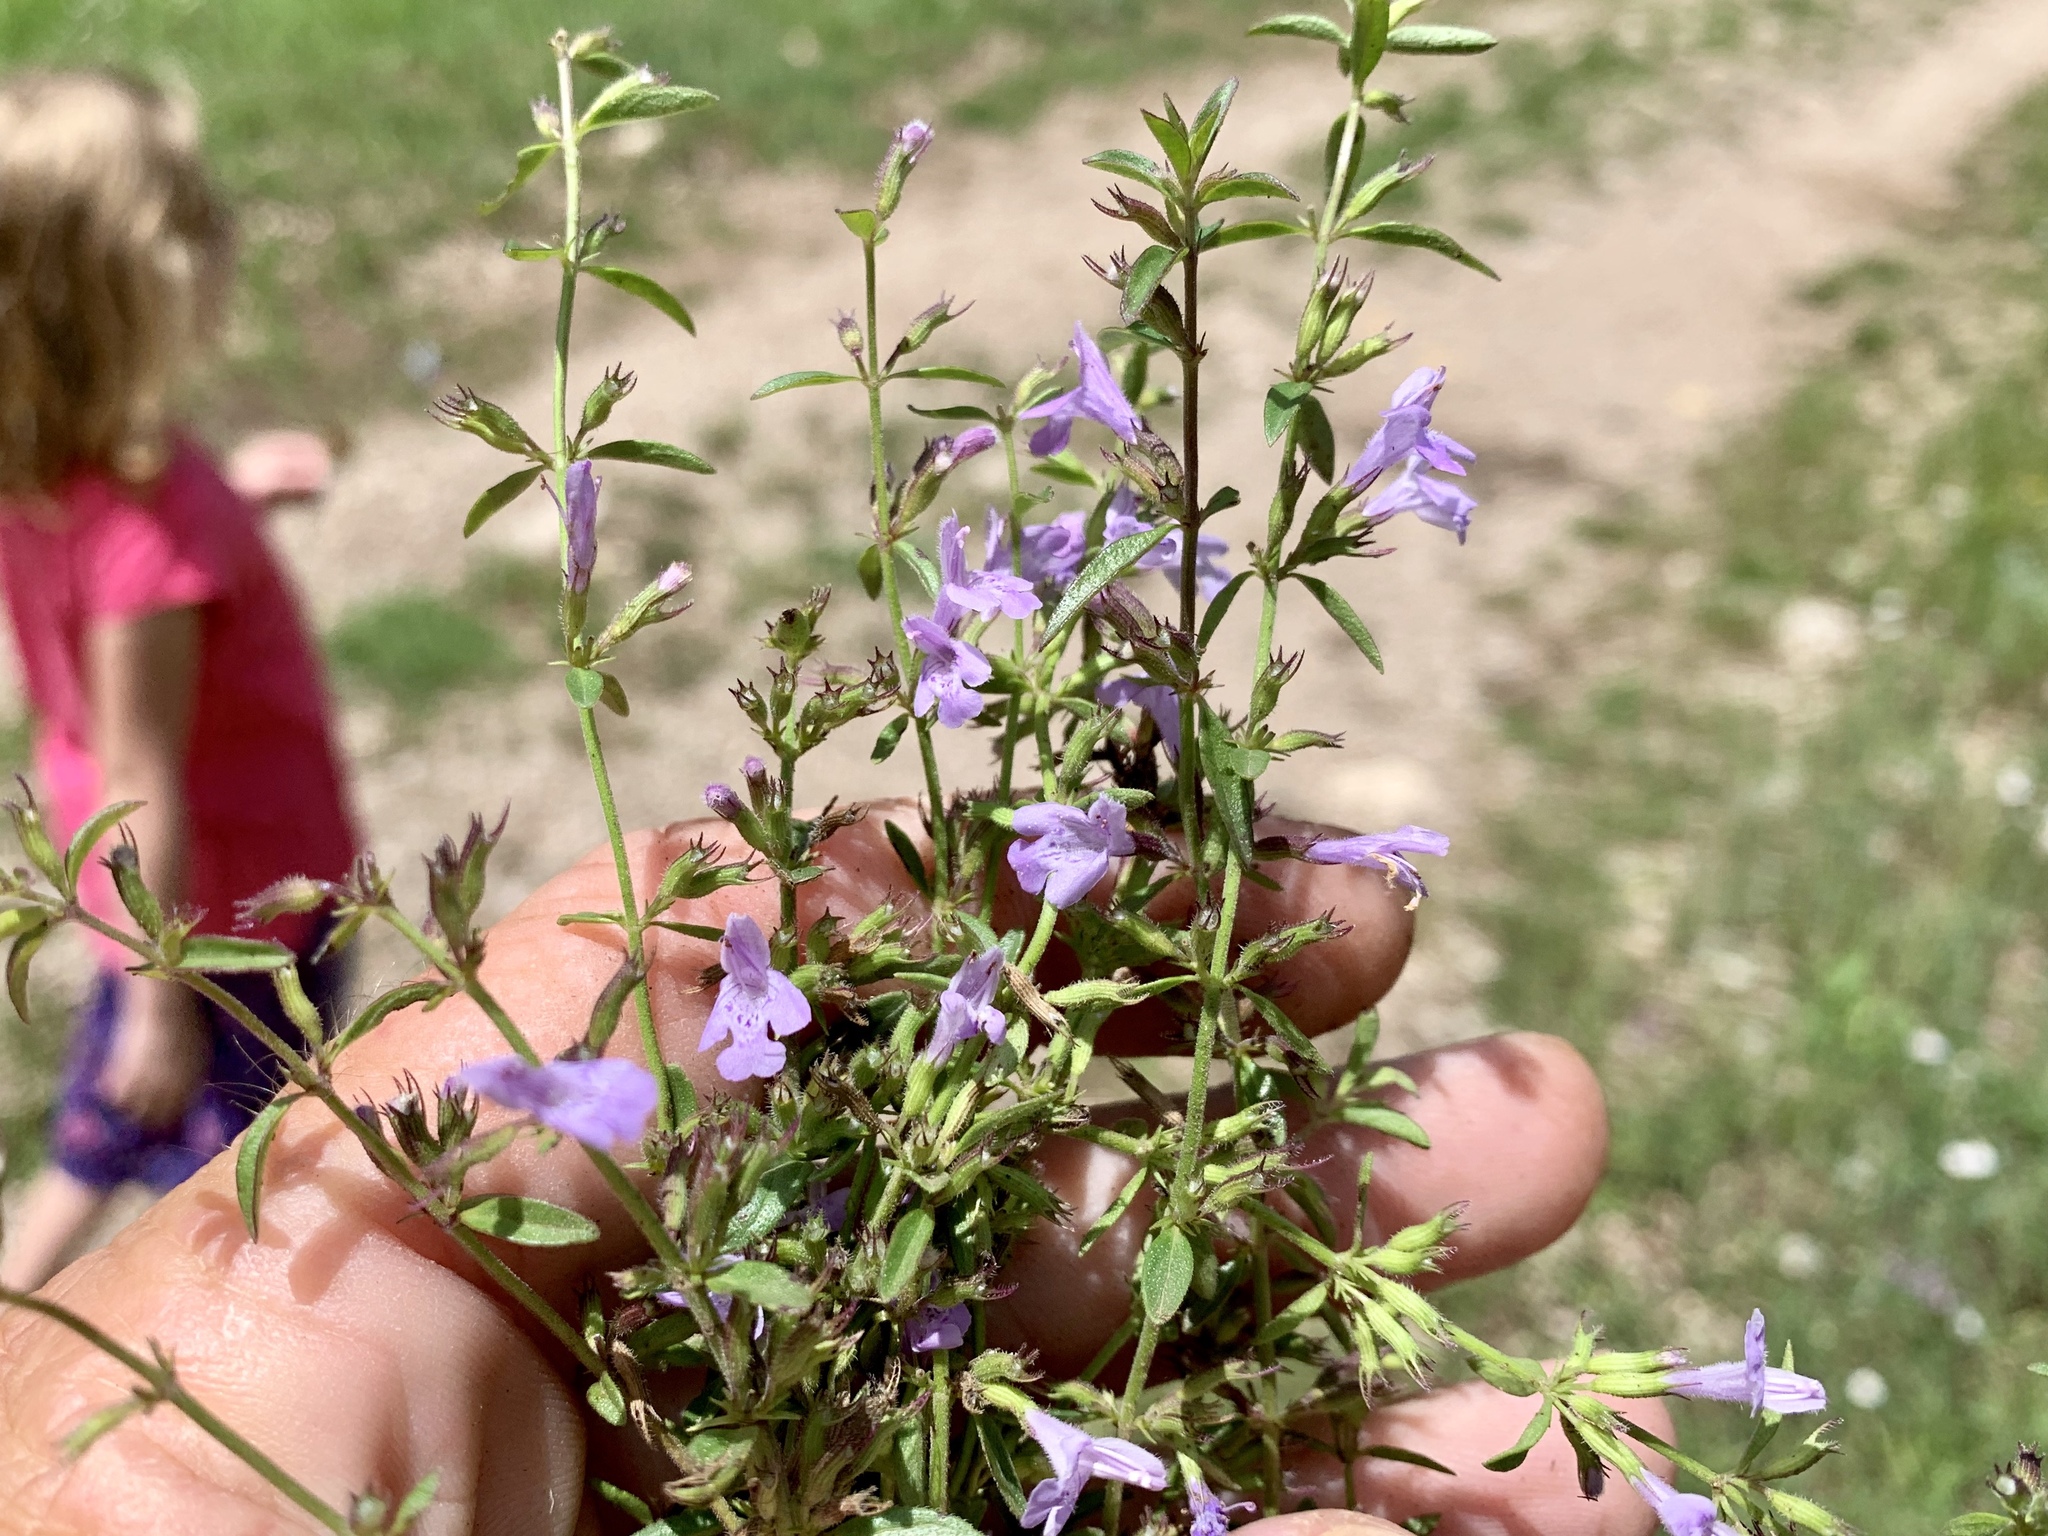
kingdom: Plantae
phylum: Tracheophyta
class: Magnoliopsida
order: Lamiales
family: Lamiaceae
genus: Hedeoma
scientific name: Hedeoma pulcherrima
